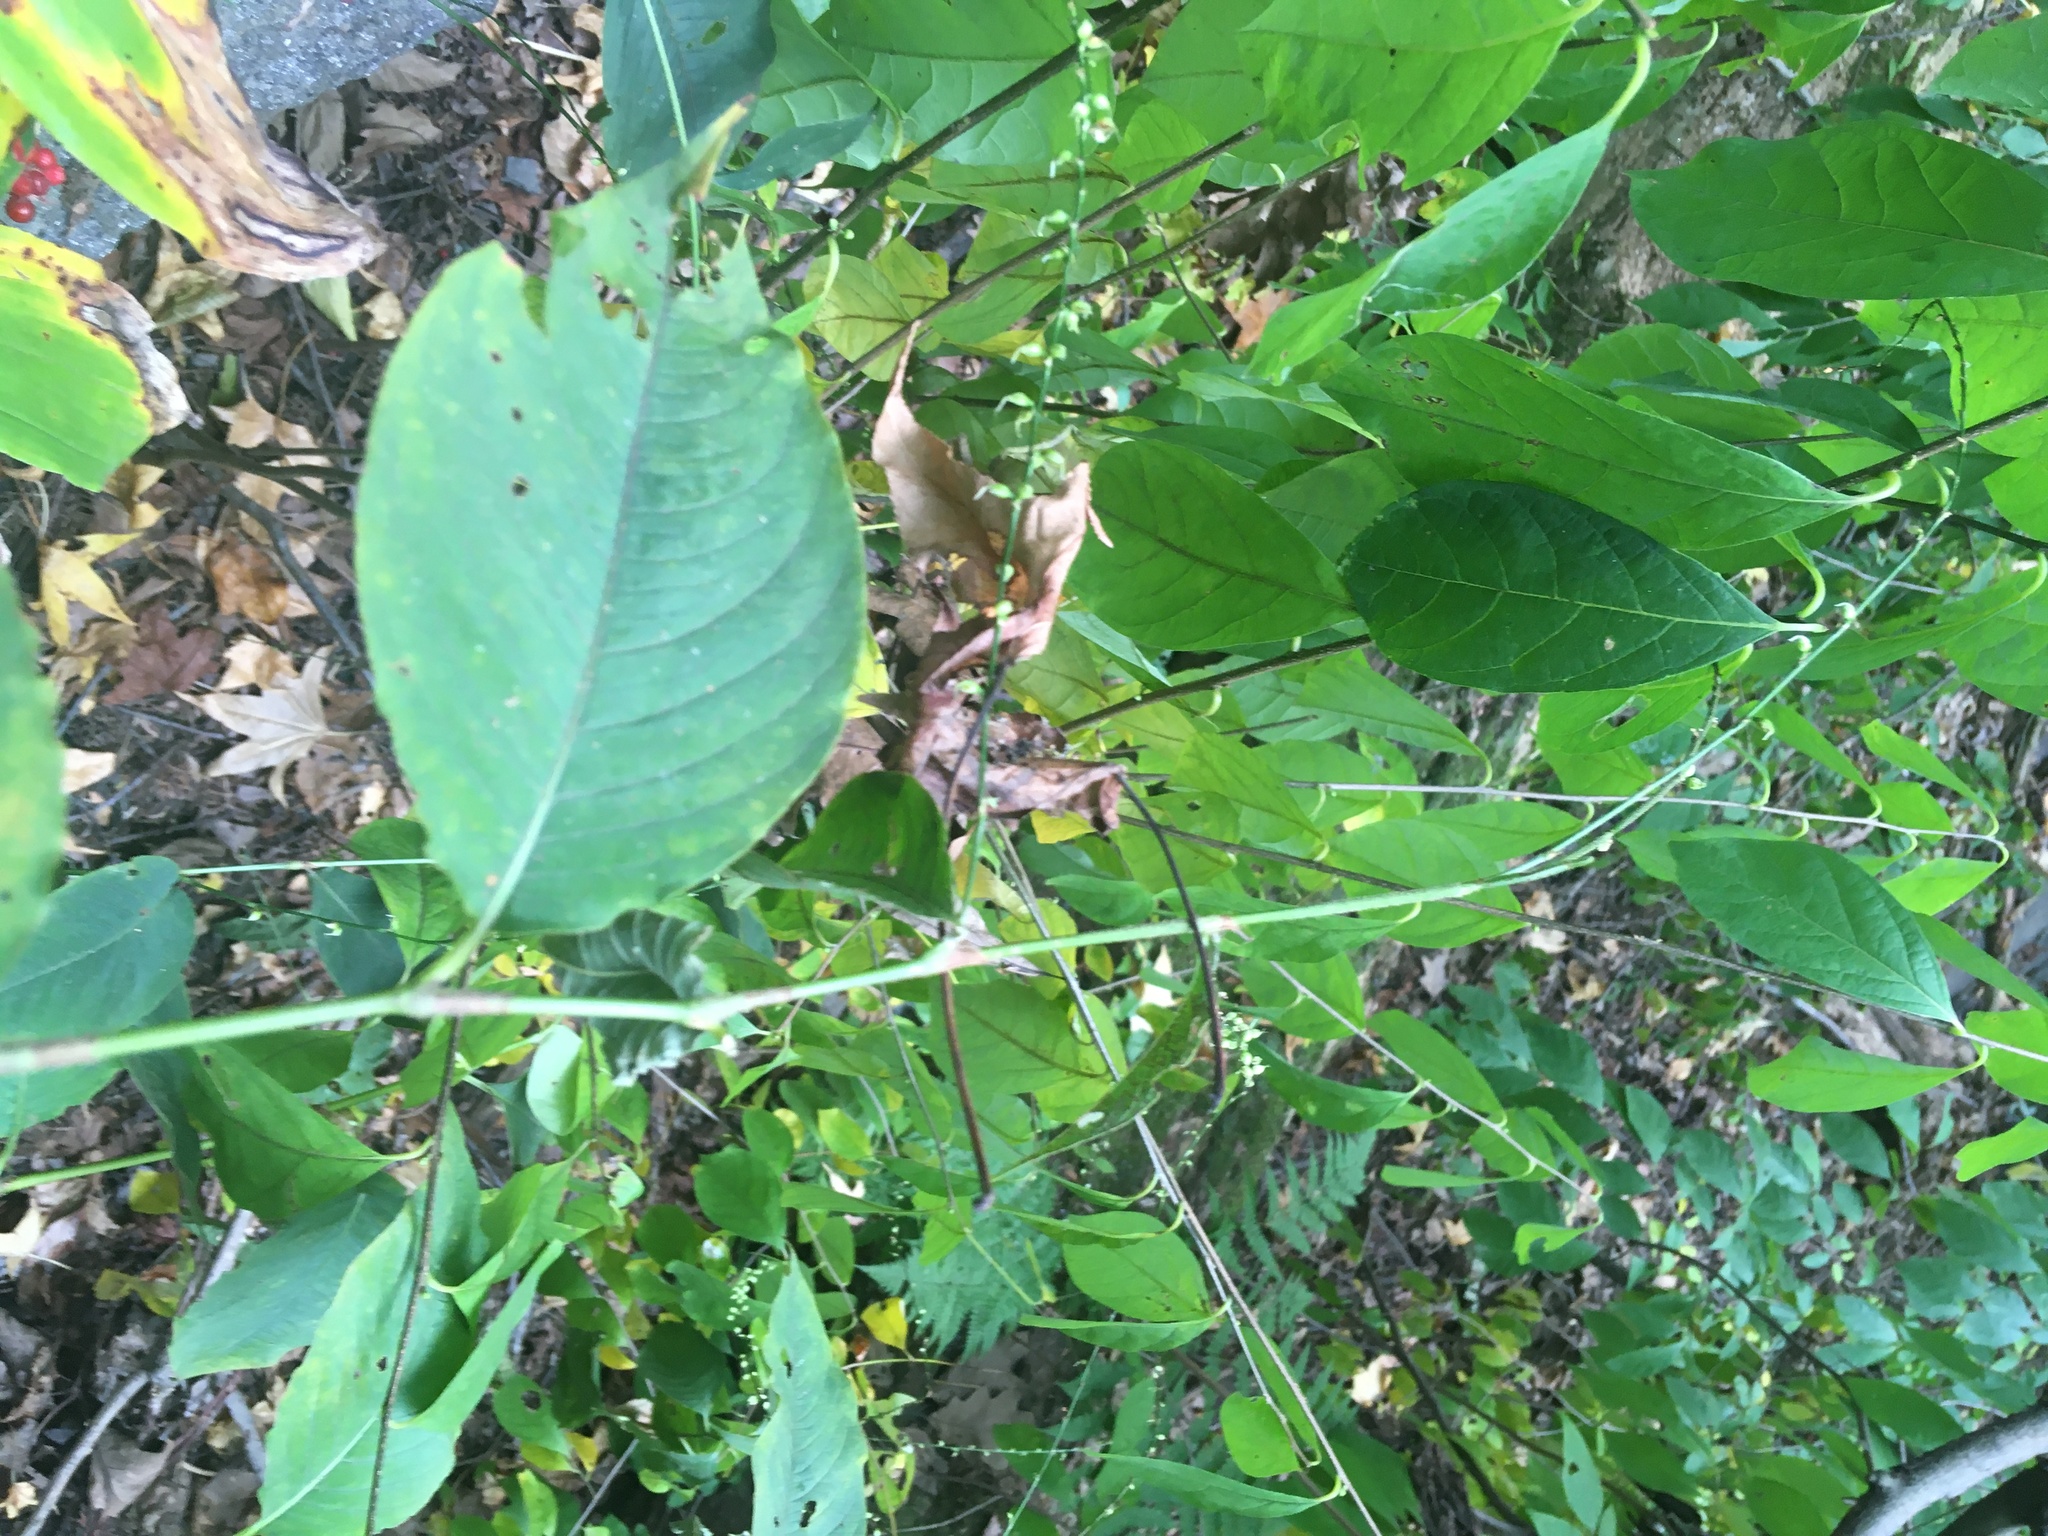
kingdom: Plantae
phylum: Tracheophyta
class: Magnoliopsida
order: Caryophyllales
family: Polygonaceae
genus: Persicaria
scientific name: Persicaria virginiana
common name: Jumpseed
